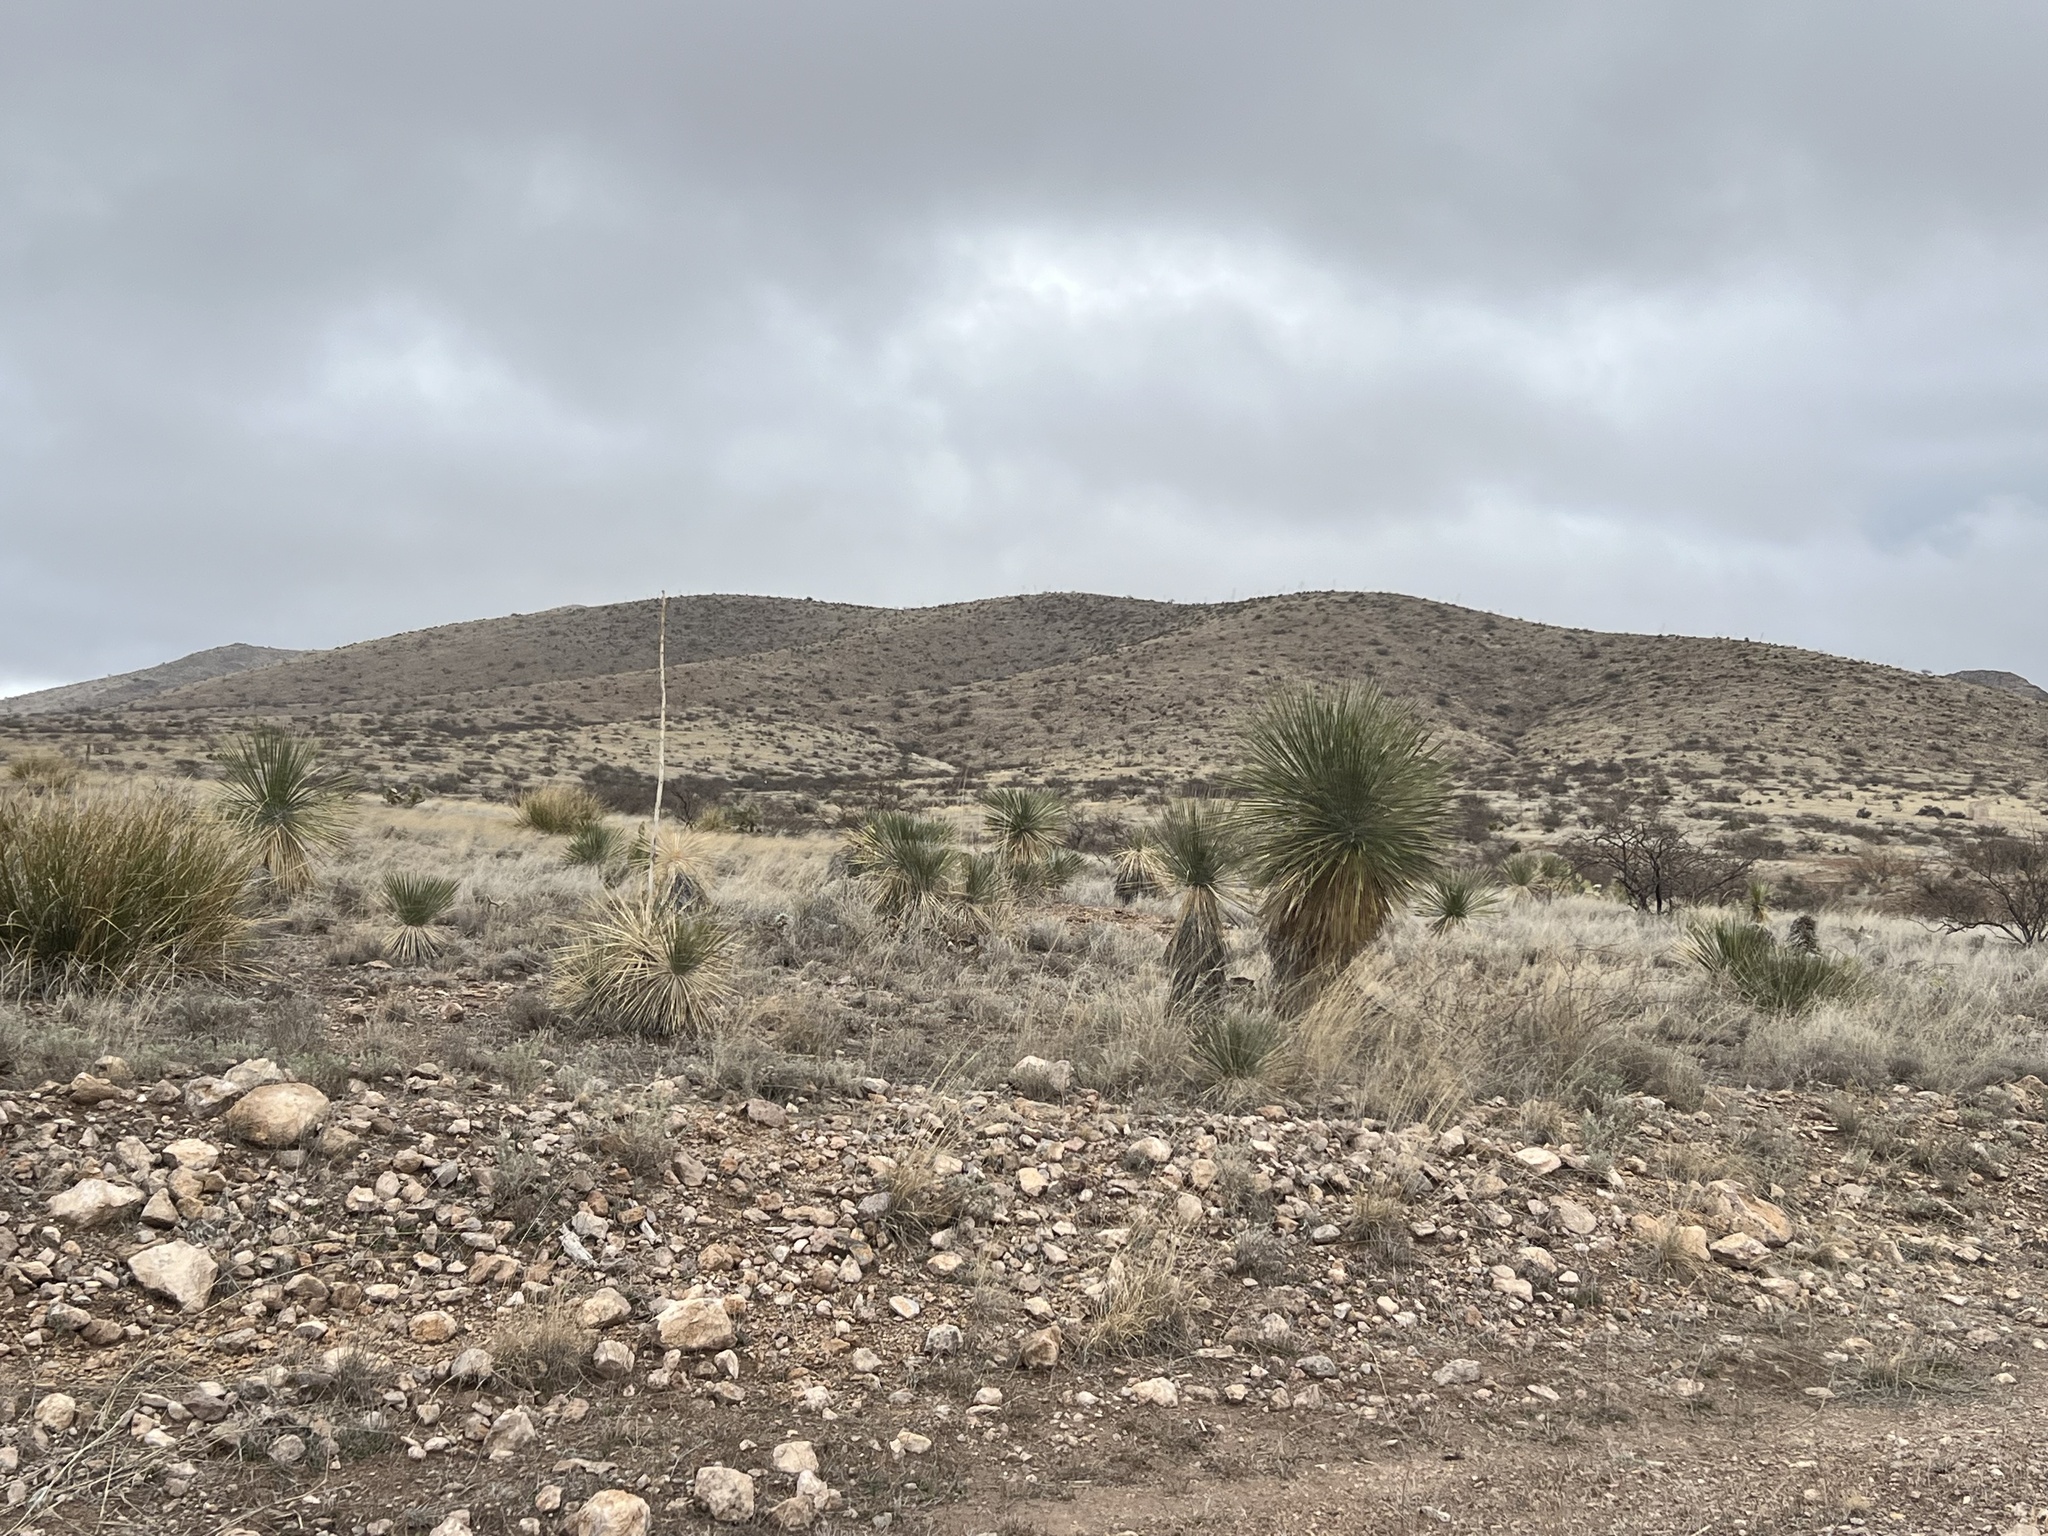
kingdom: Plantae
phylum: Tracheophyta
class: Liliopsida
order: Asparagales
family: Asparagaceae
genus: Yucca
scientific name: Yucca elata
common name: Palmella
